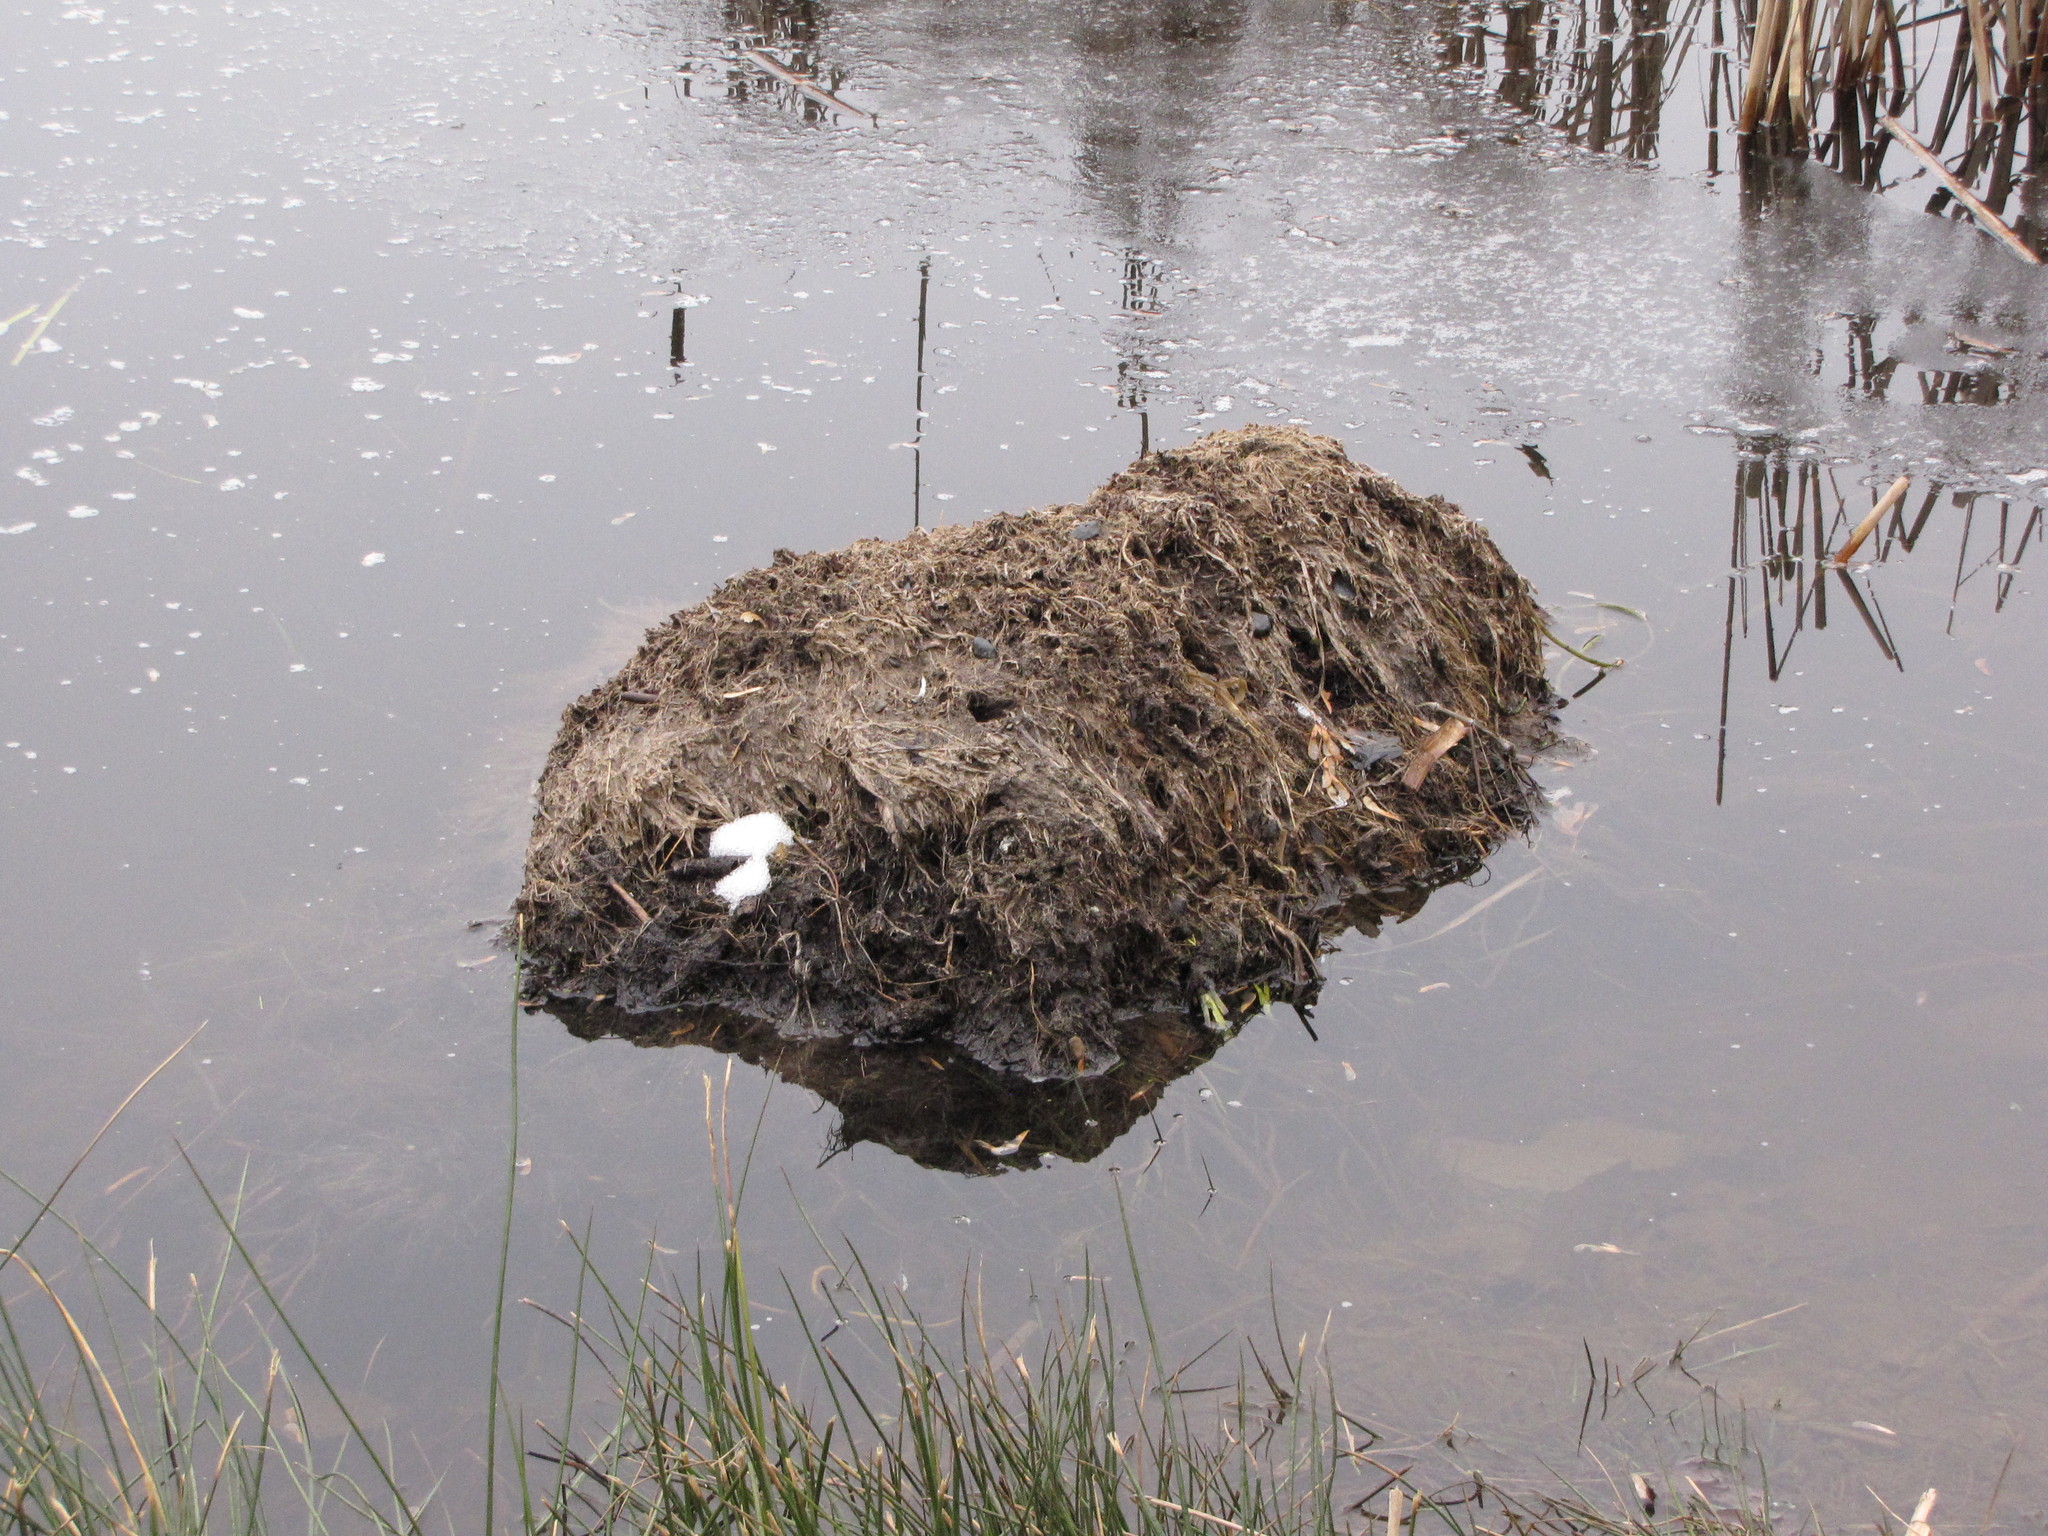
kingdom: Animalia
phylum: Chordata
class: Mammalia
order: Rodentia
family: Castoridae
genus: Castor
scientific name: Castor canadensis
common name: American beaver
